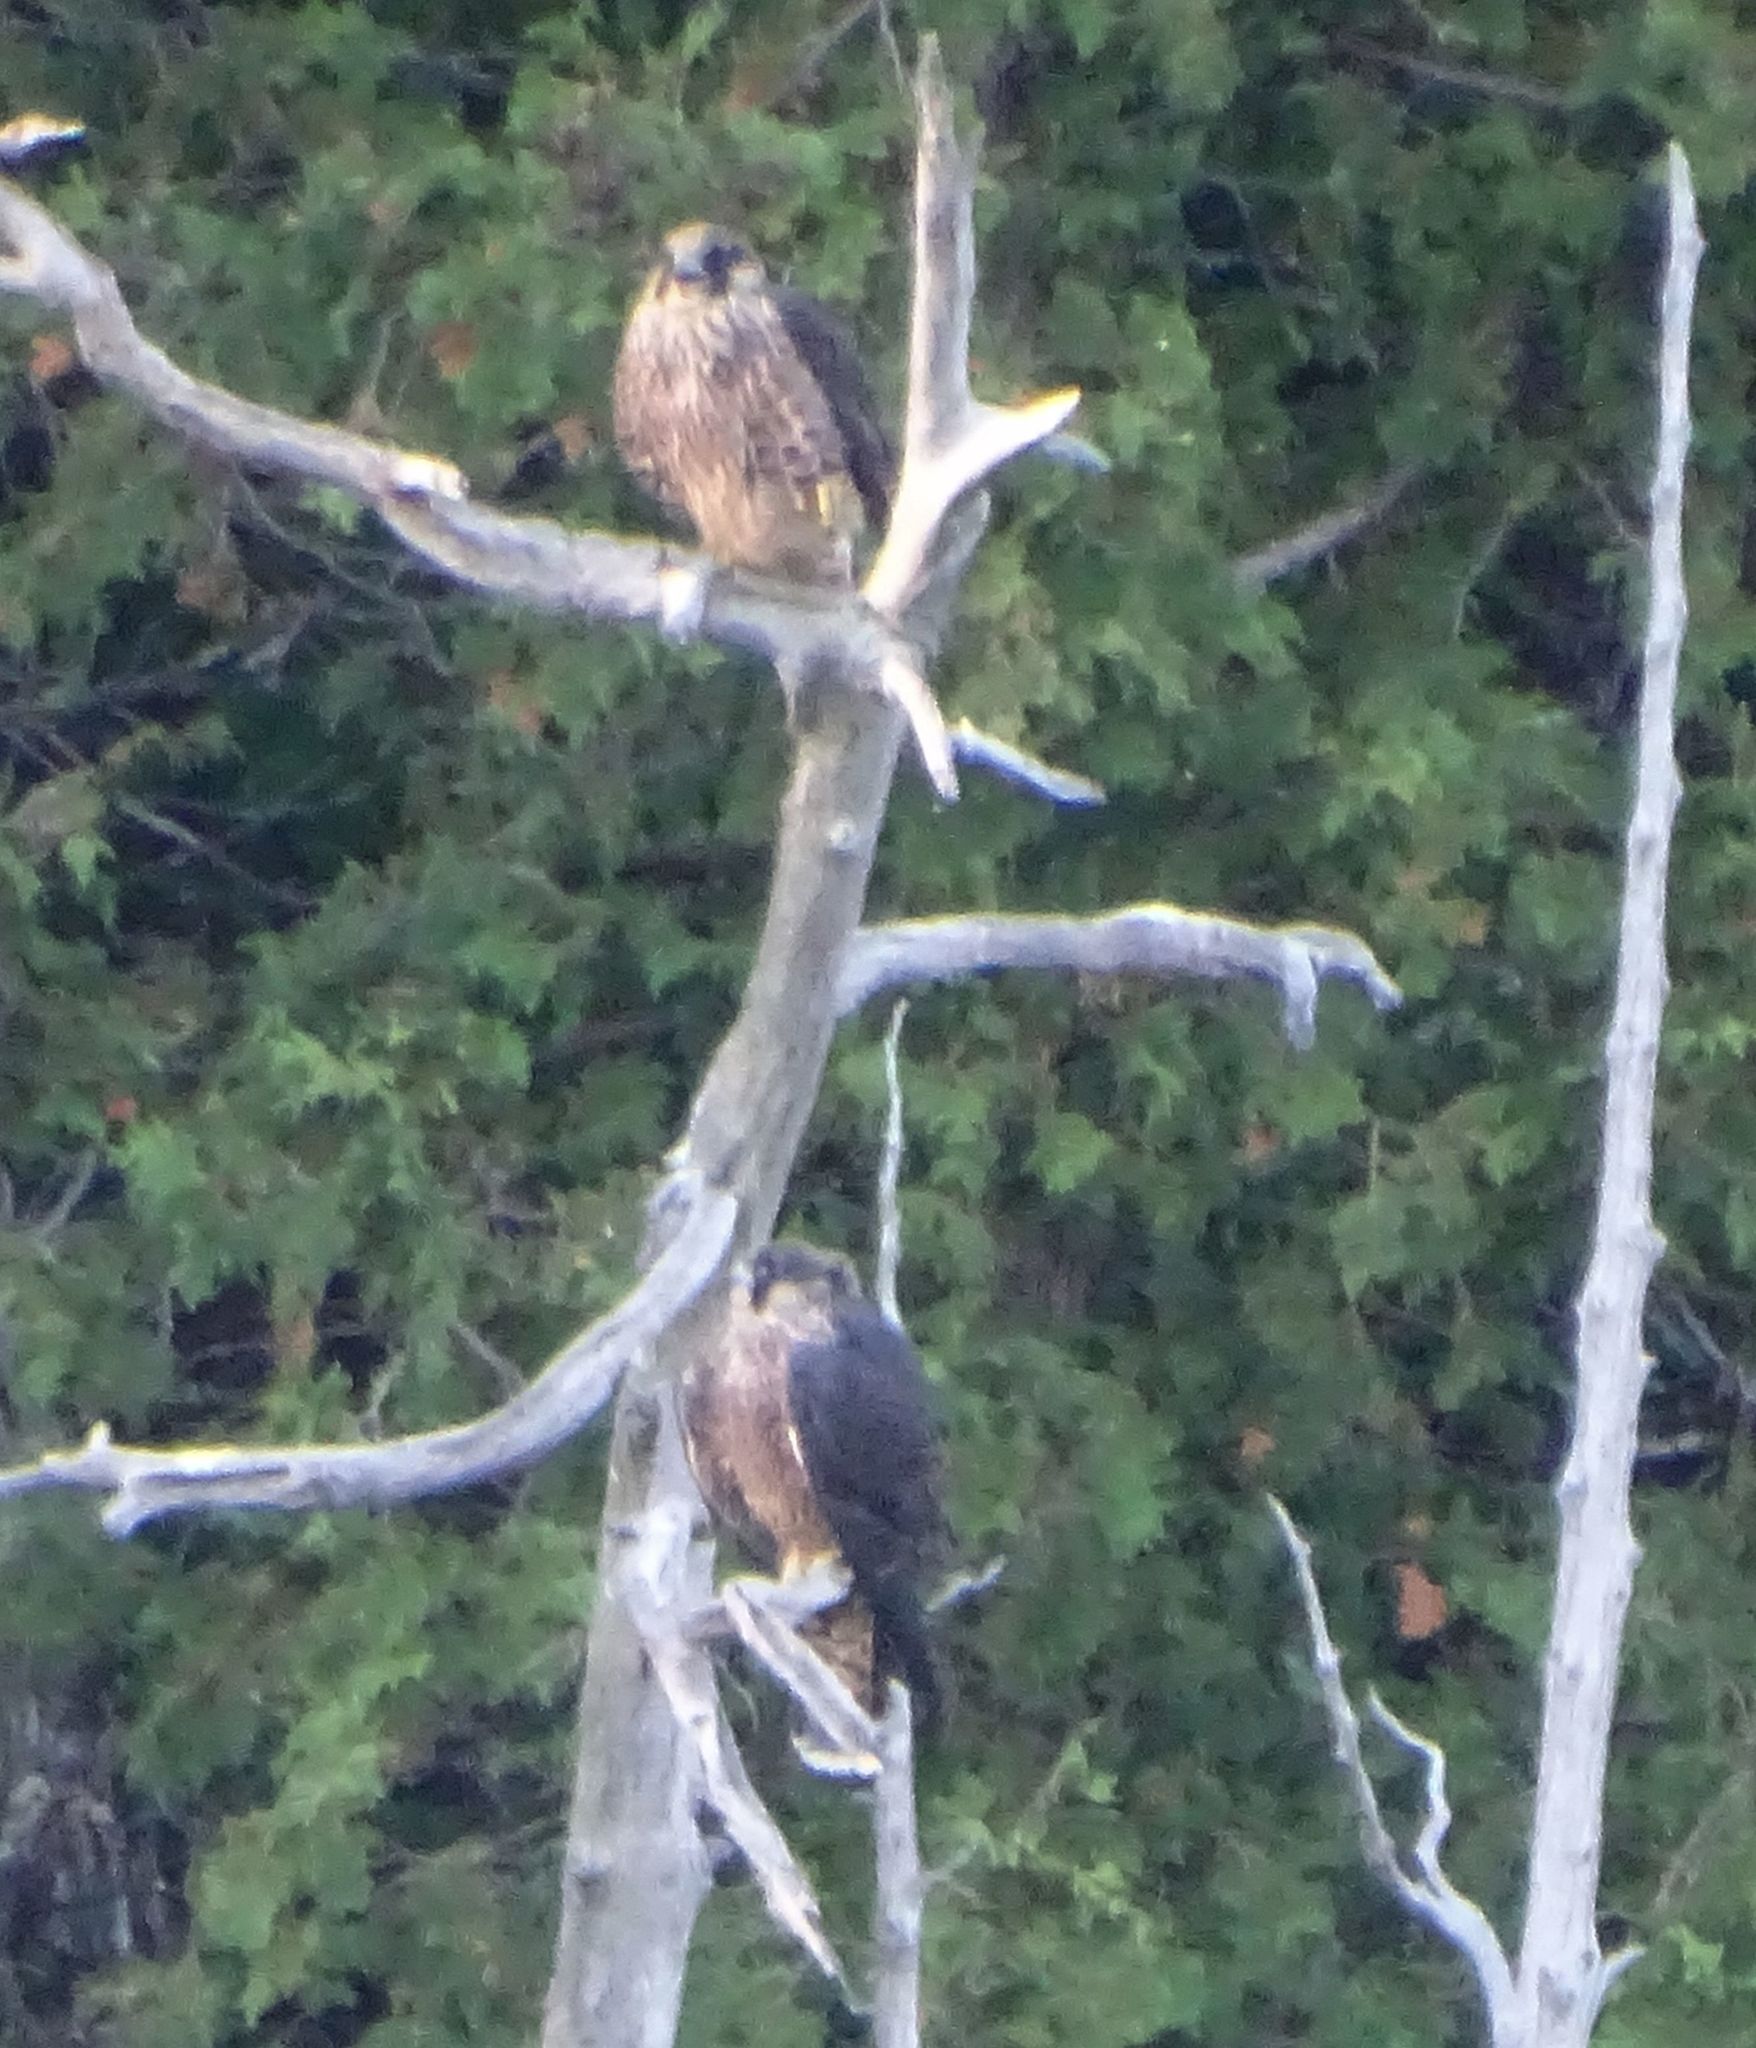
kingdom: Animalia
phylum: Chordata
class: Aves
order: Falconiformes
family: Falconidae
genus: Falco
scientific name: Falco peregrinus
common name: Peregrine falcon
